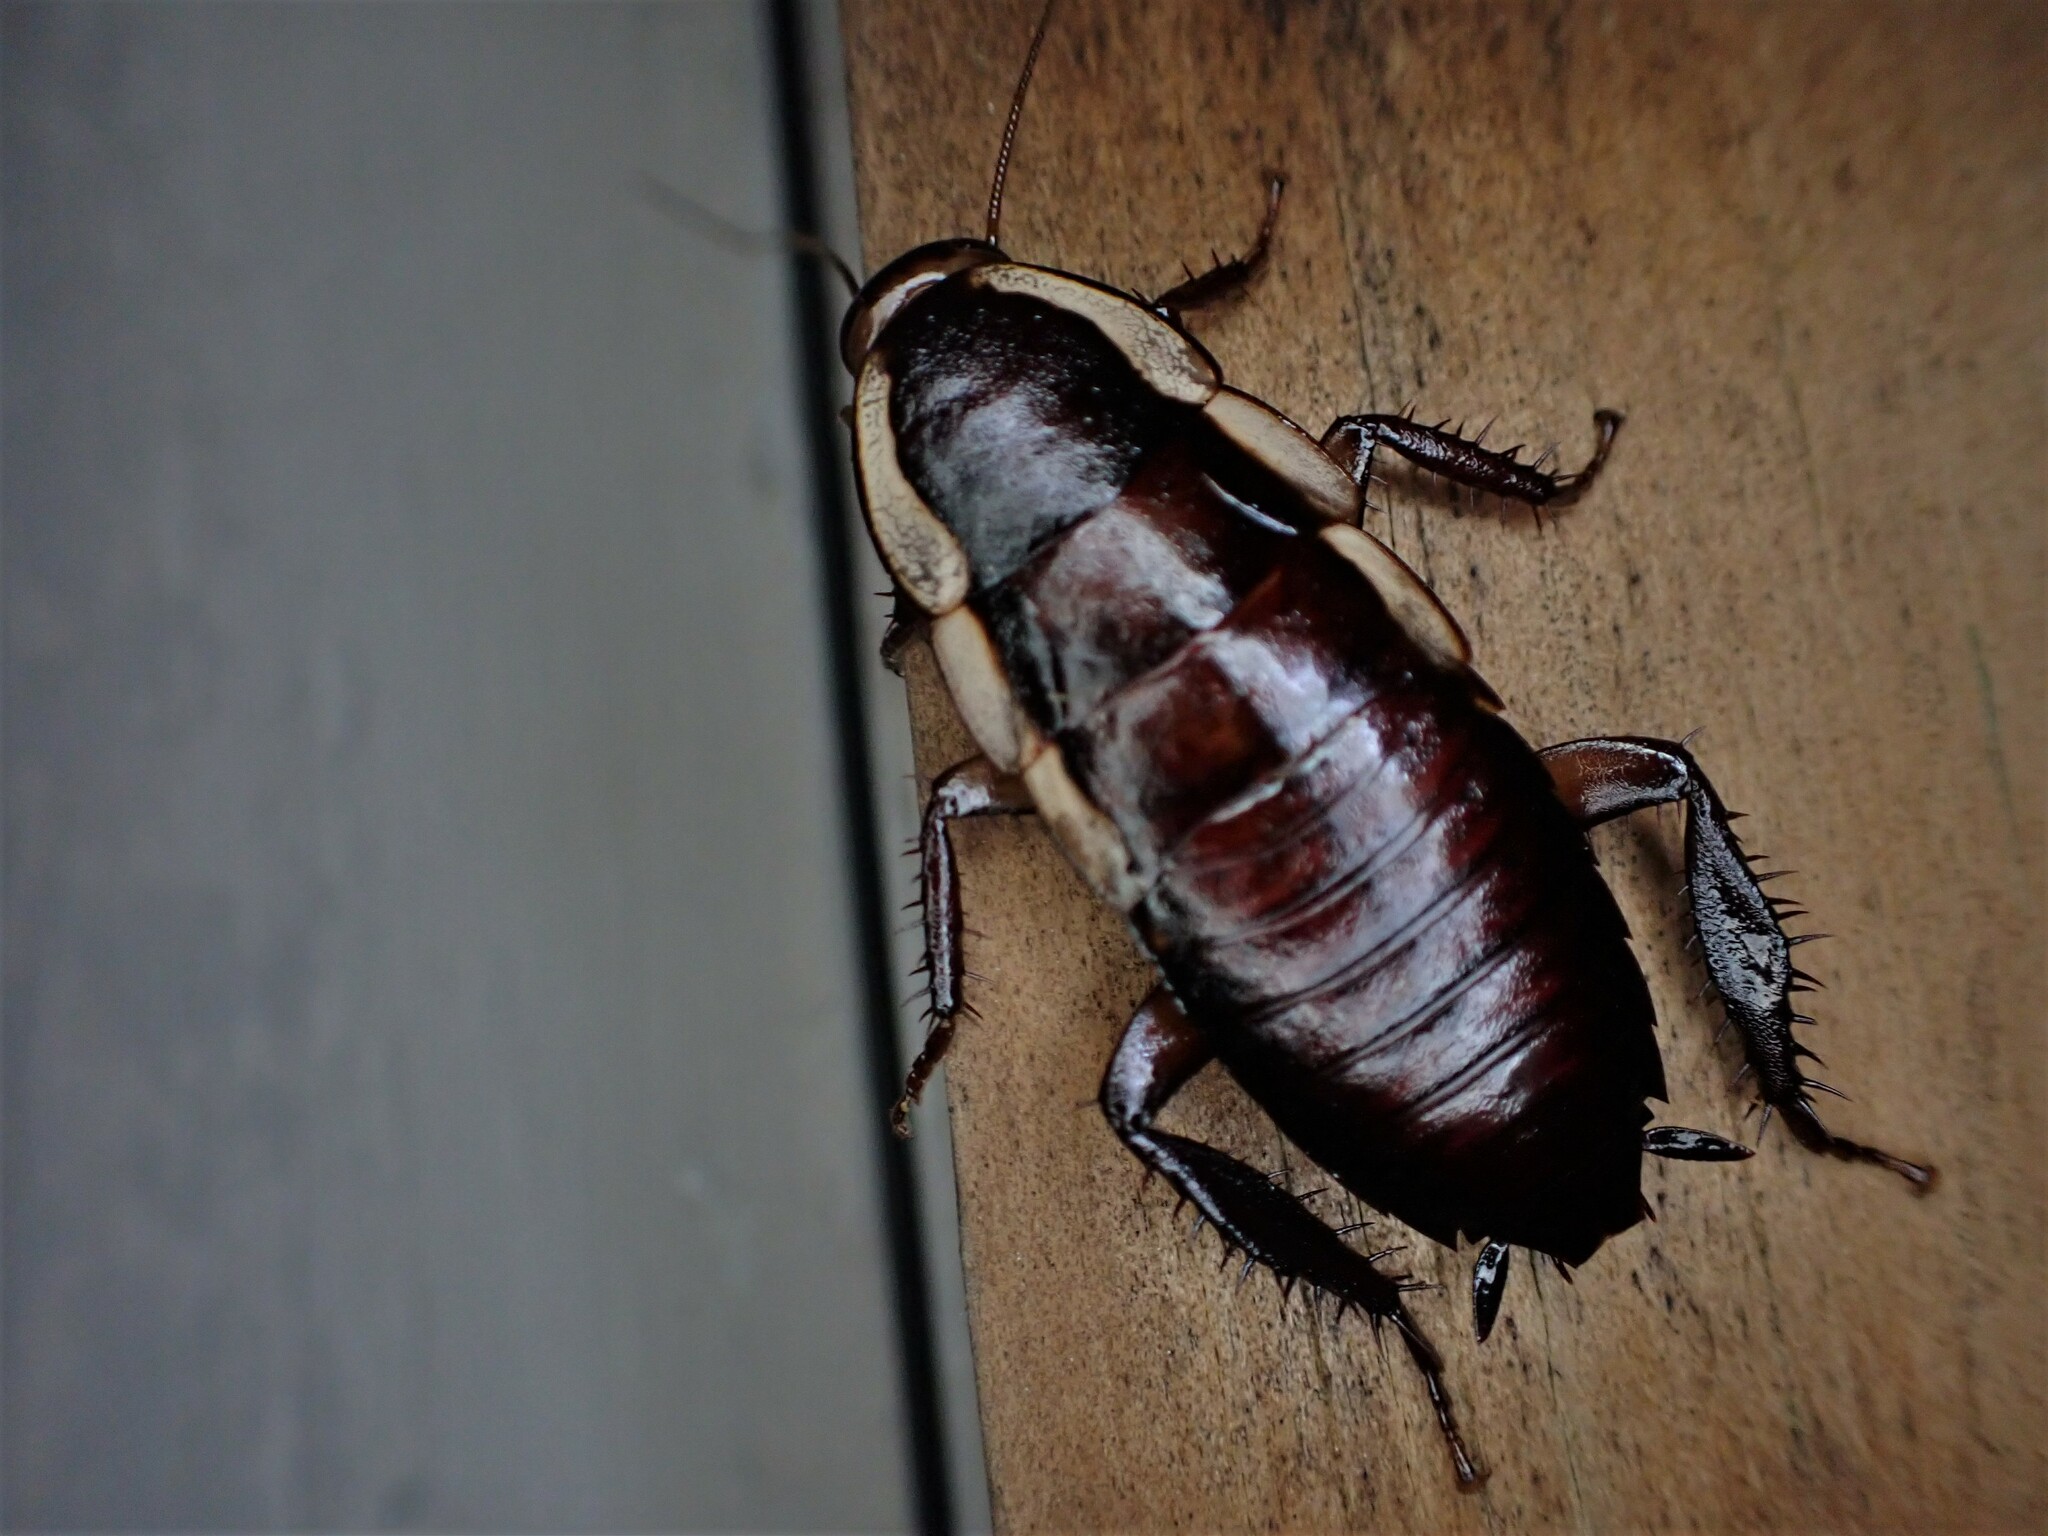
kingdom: Animalia
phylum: Arthropoda
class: Insecta
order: Blattodea
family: Blattidae
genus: Drymaplaneta
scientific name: Drymaplaneta semivitta
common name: Gisborne cockroach
